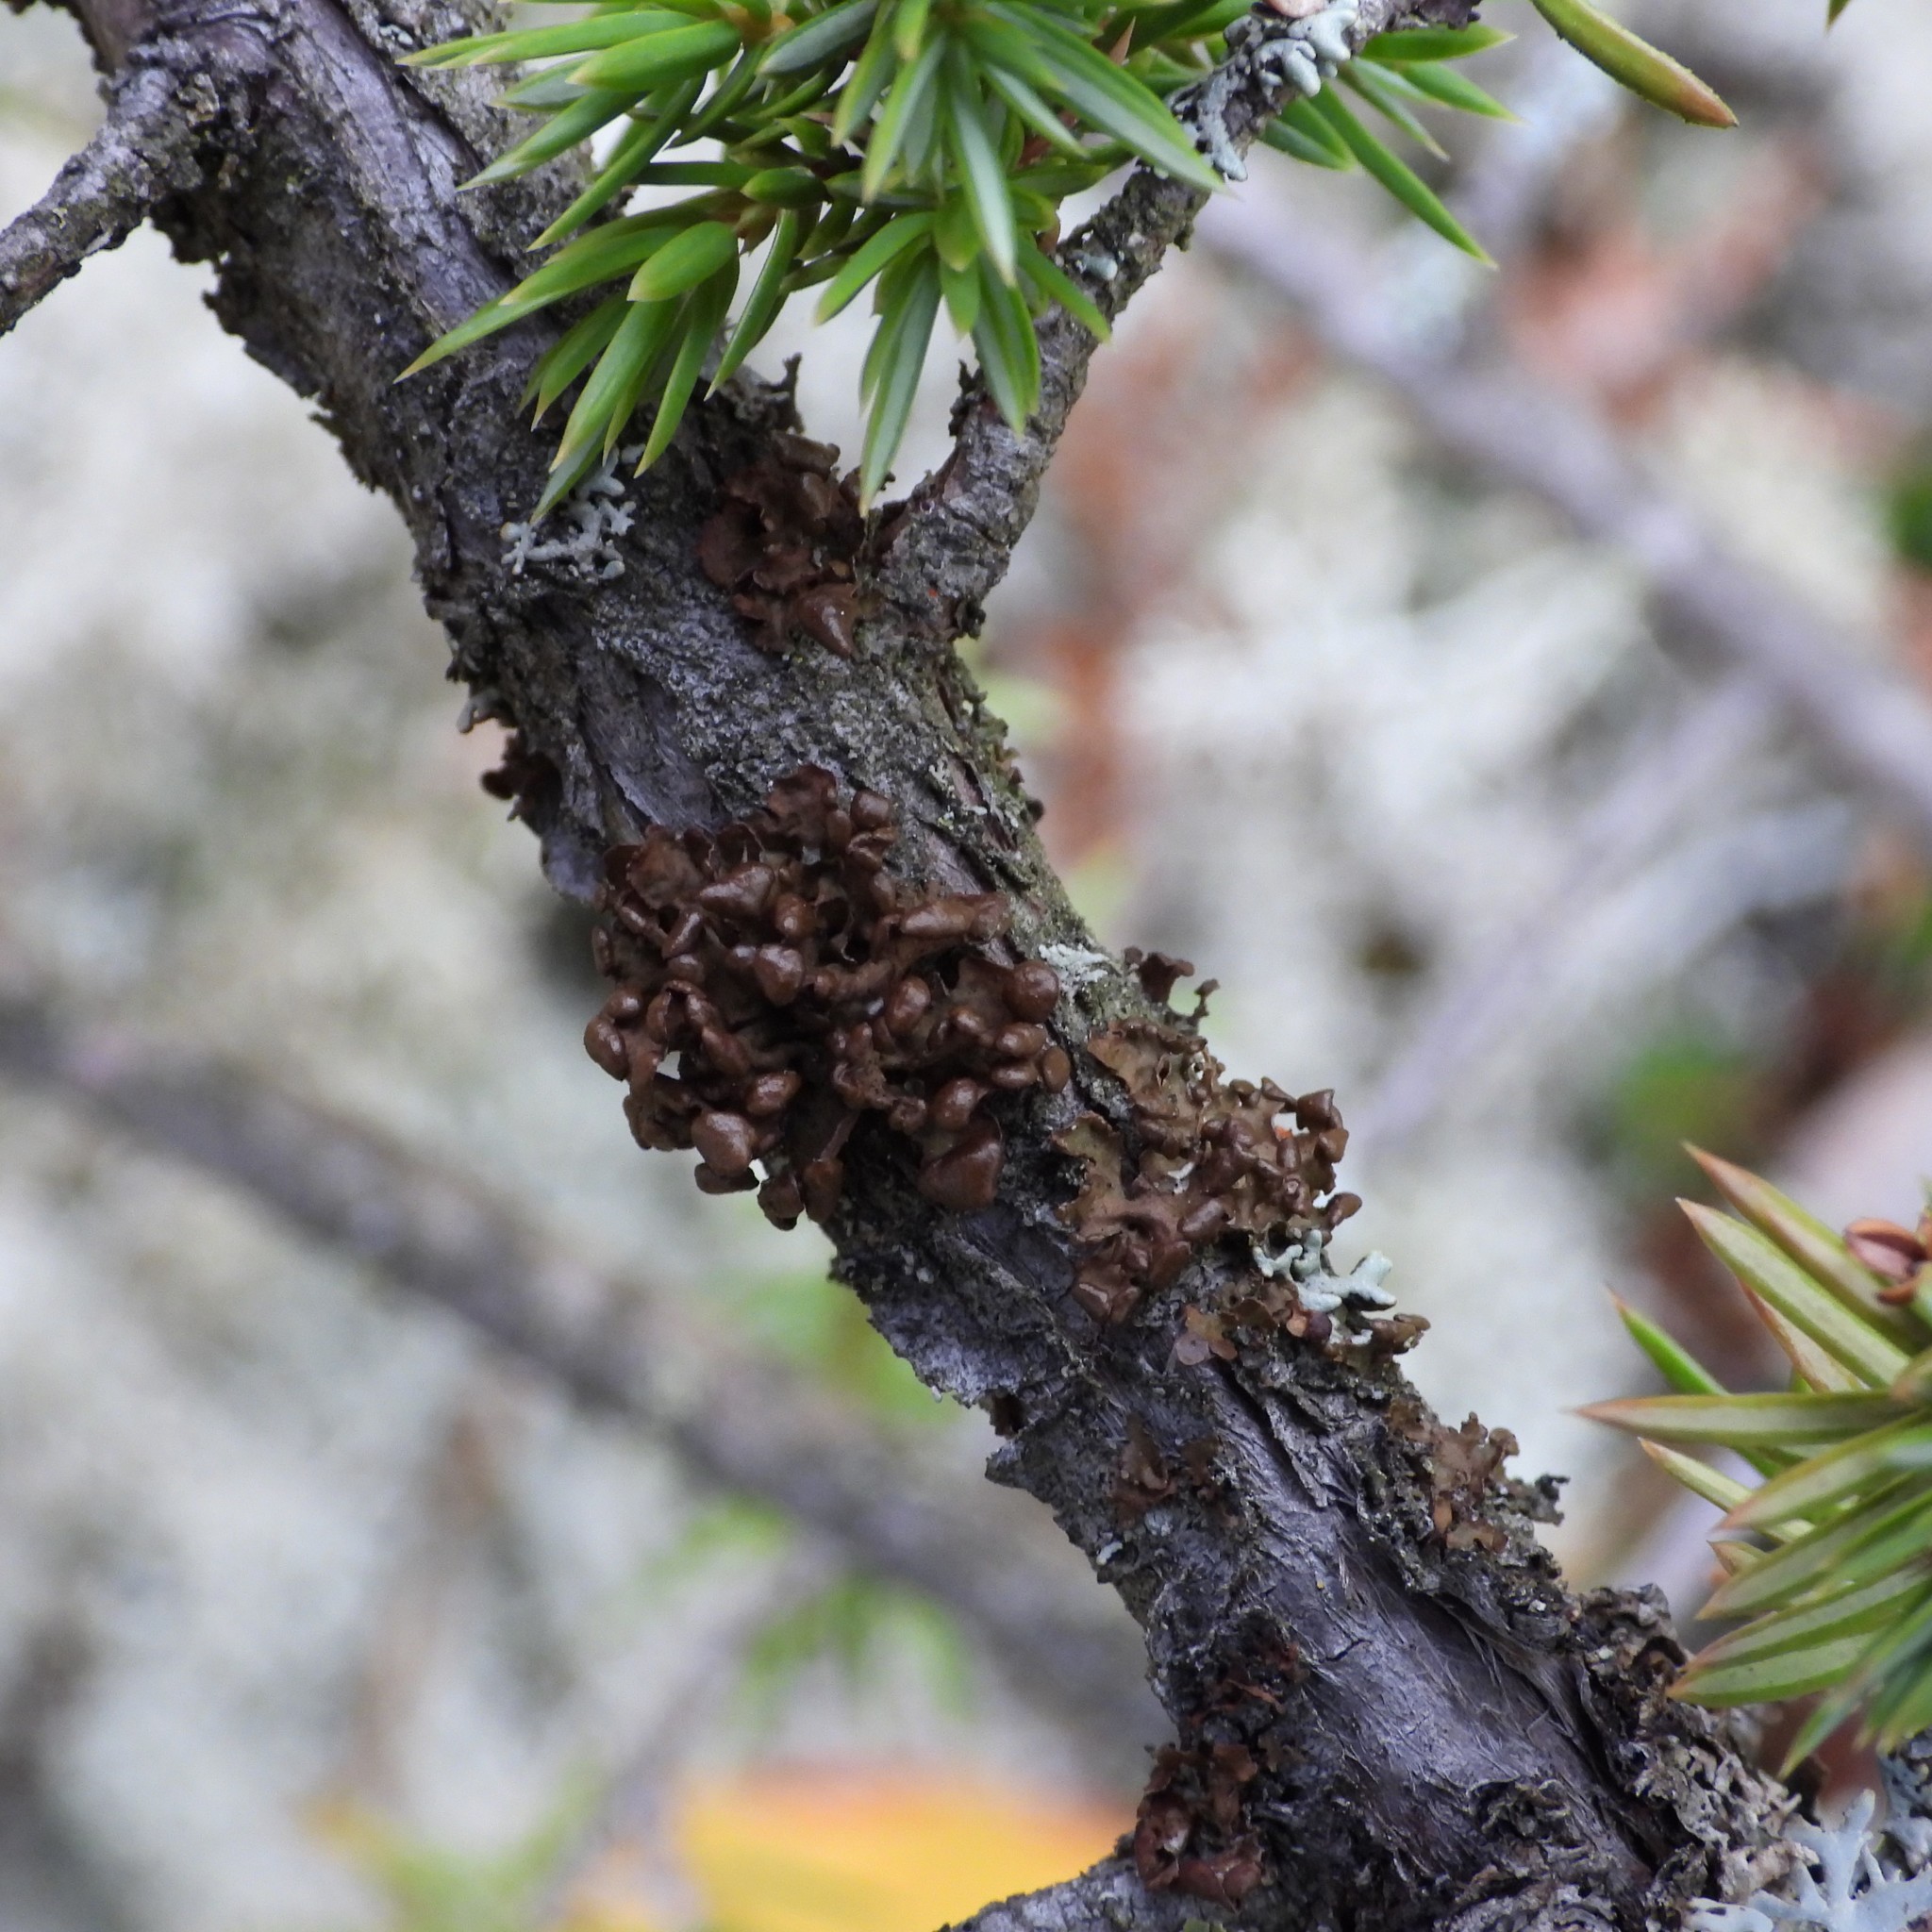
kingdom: Fungi
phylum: Ascomycota
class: Lecanoromycetes
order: Lecanorales
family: Parmeliaceae
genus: Cetraria
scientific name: Cetraria sepincola
